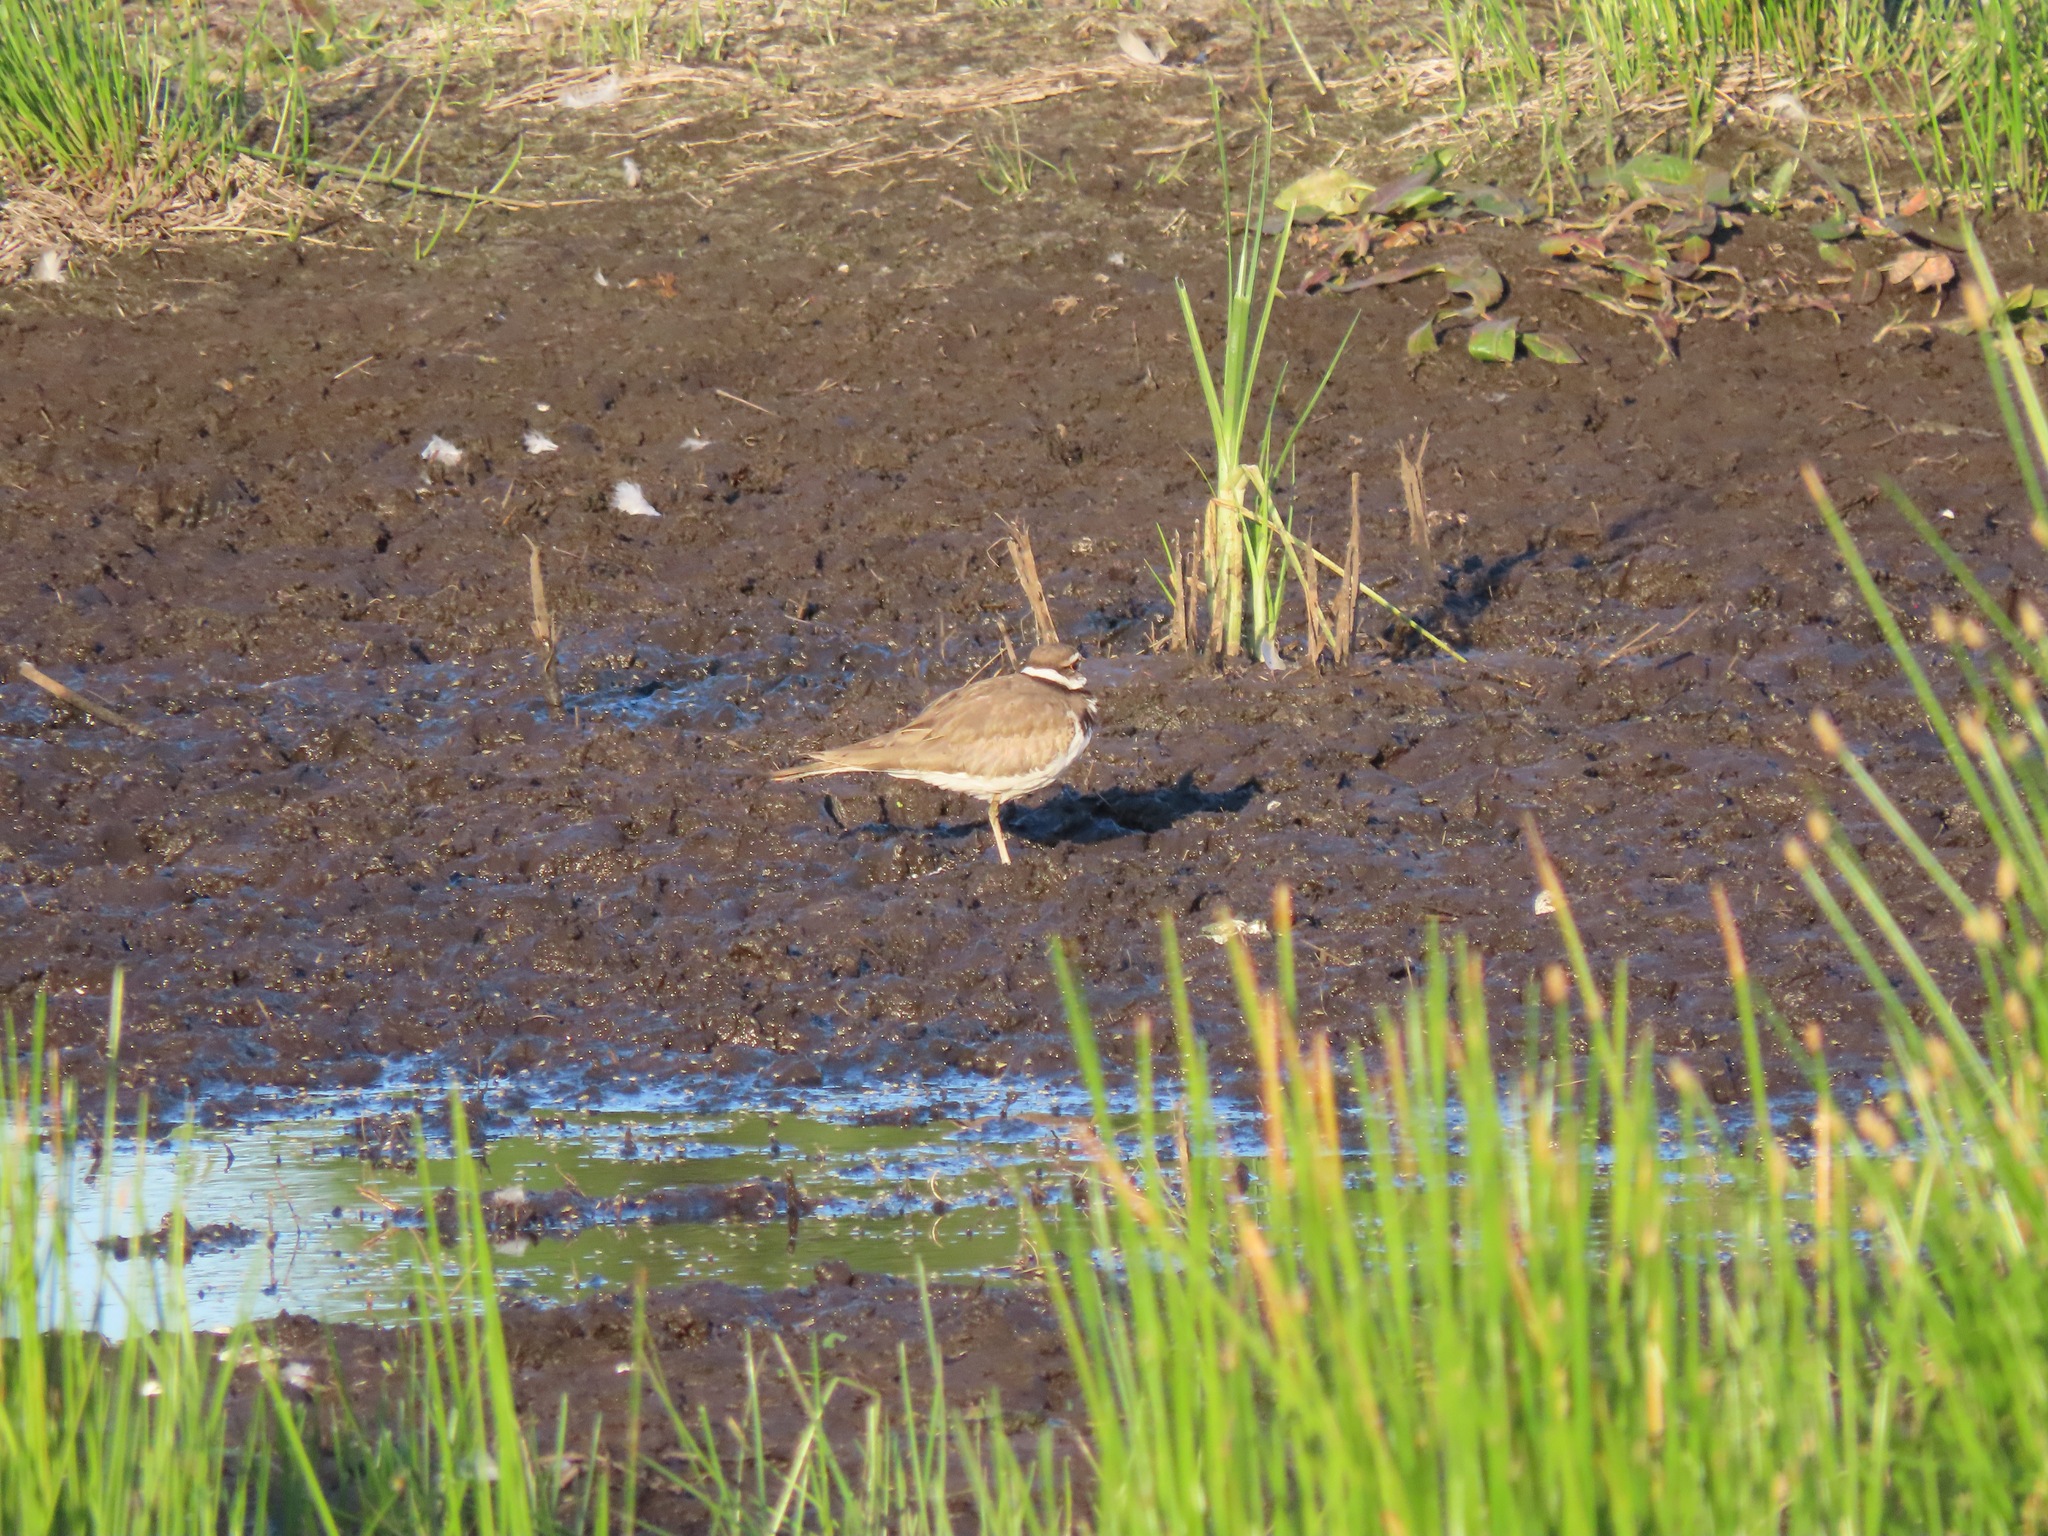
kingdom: Animalia
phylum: Chordata
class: Aves
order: Charadriiformes
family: Charadriidae
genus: Charadrius
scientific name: Charadrius vociferus
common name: Killdeer
